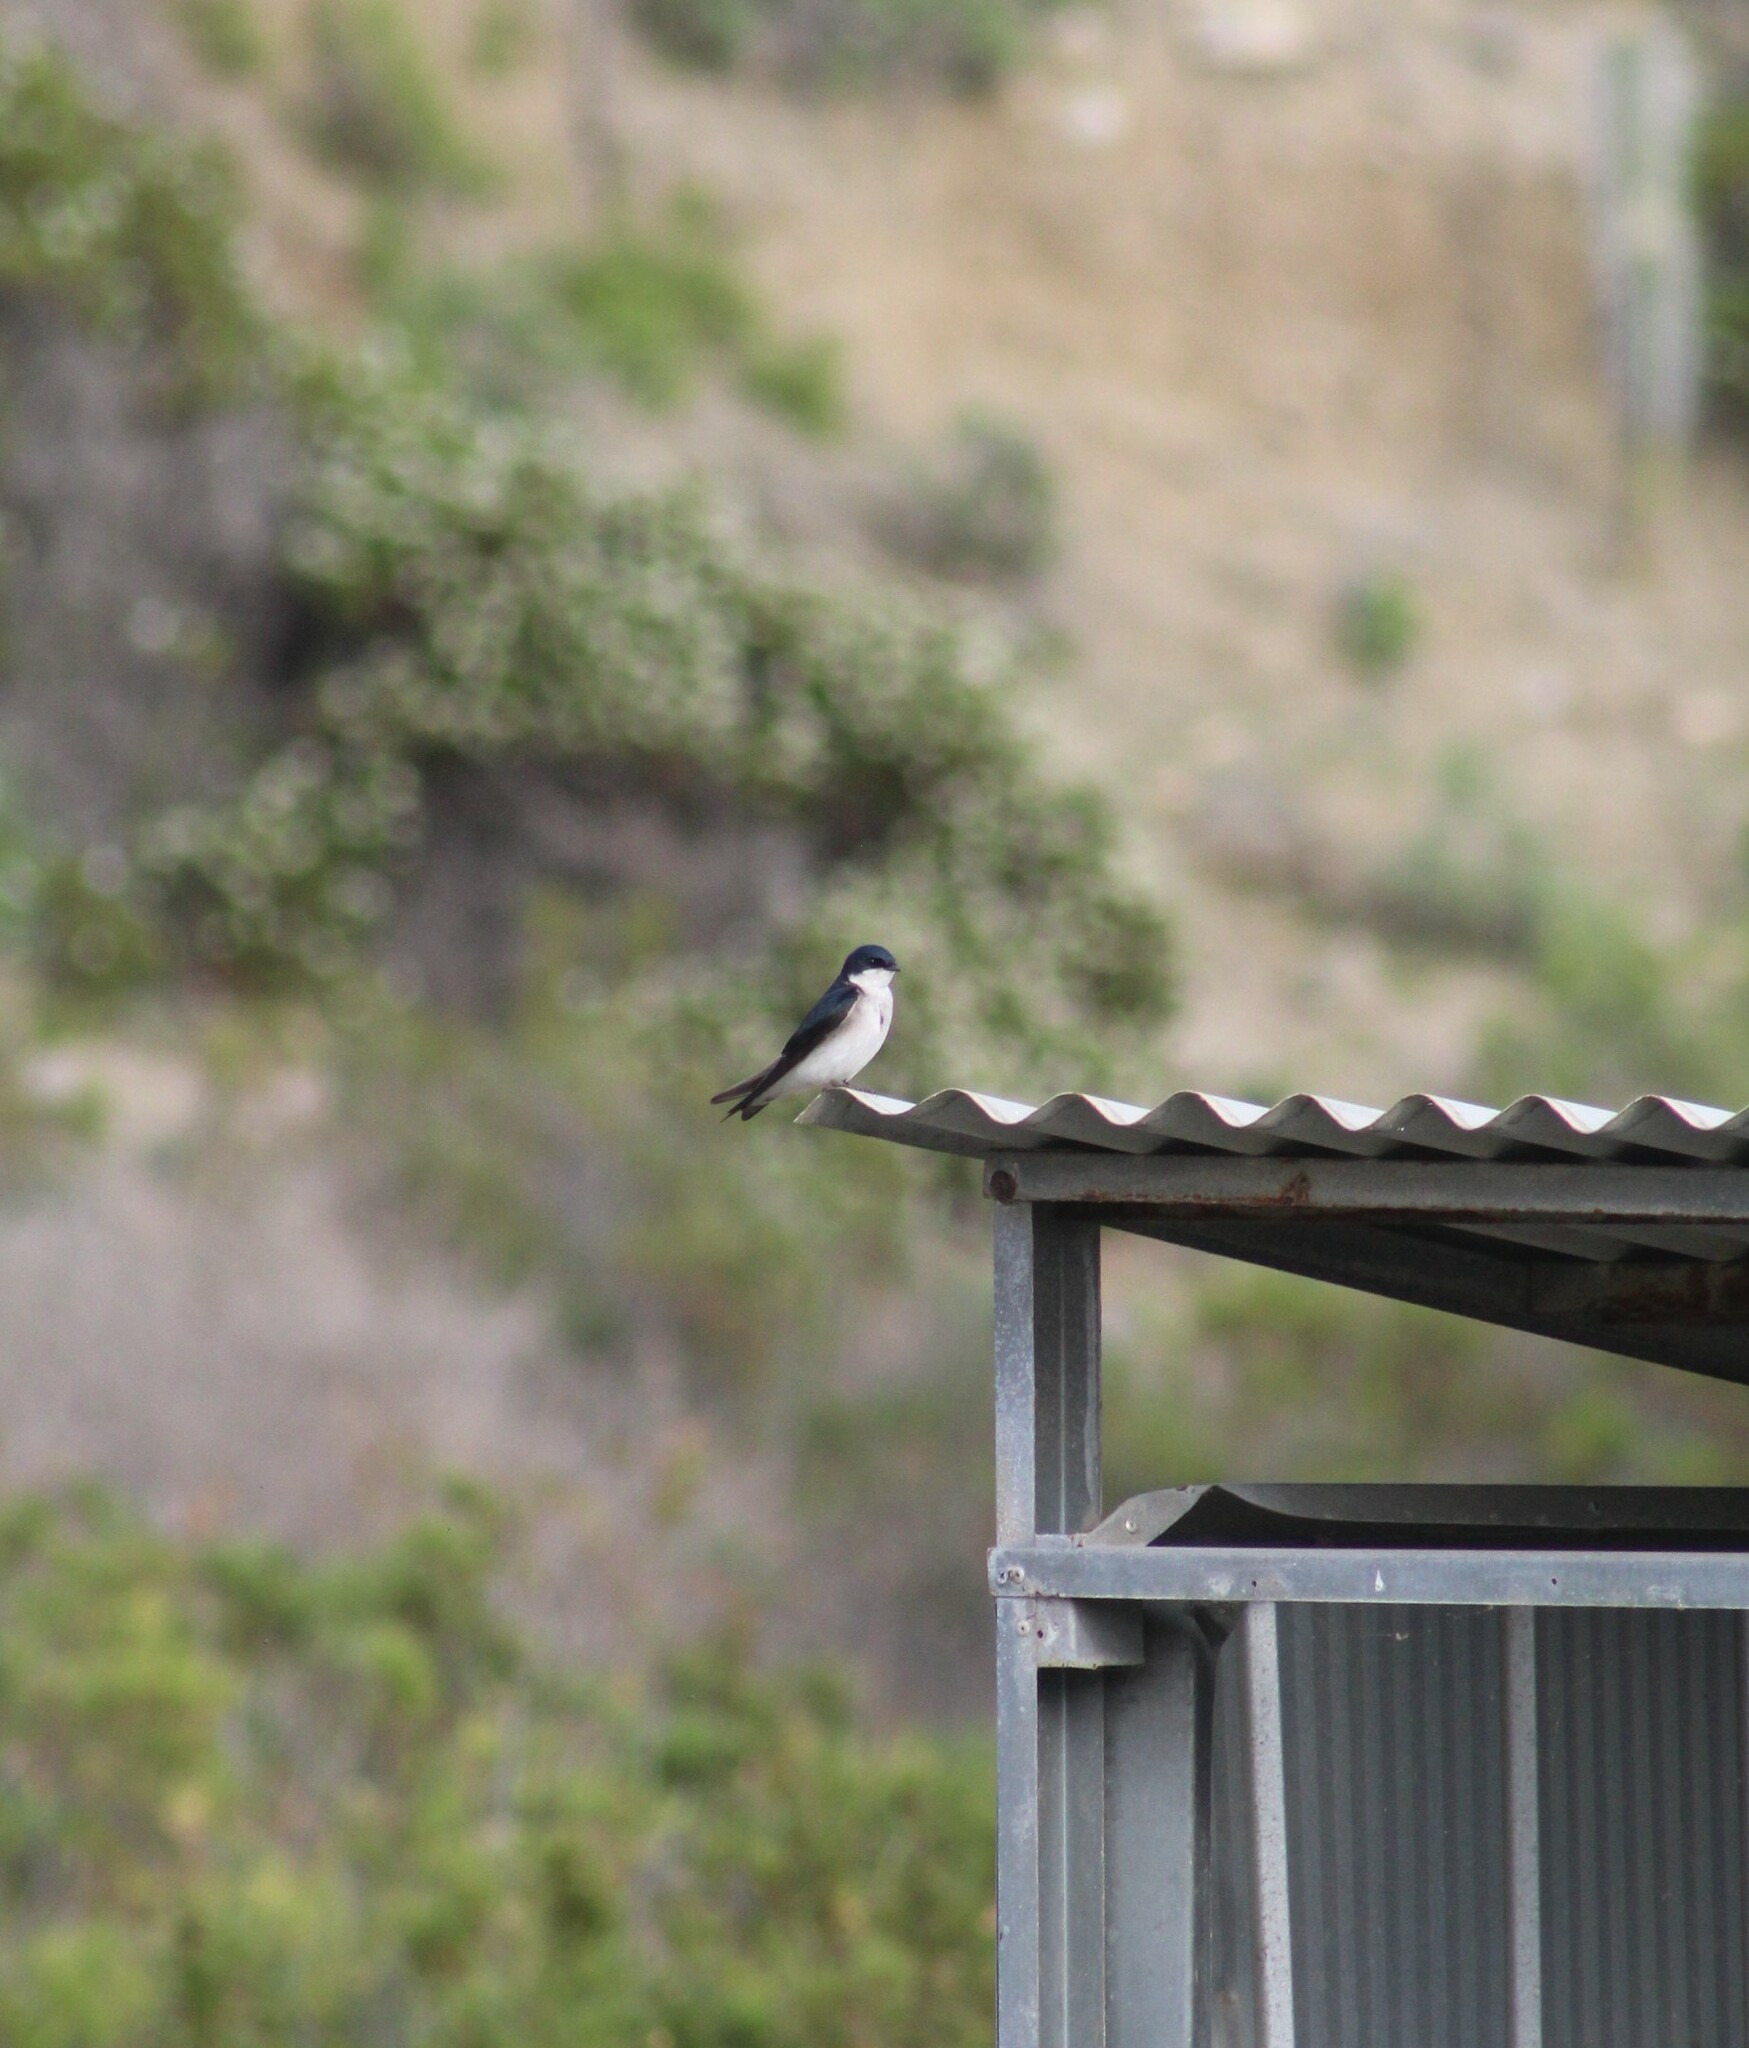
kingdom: Animalia
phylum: Chordata
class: Aves
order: Passeriformes
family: Hirundinidae
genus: Tachycineta
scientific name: Tachycineta leucopyga
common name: Chilean swallow
